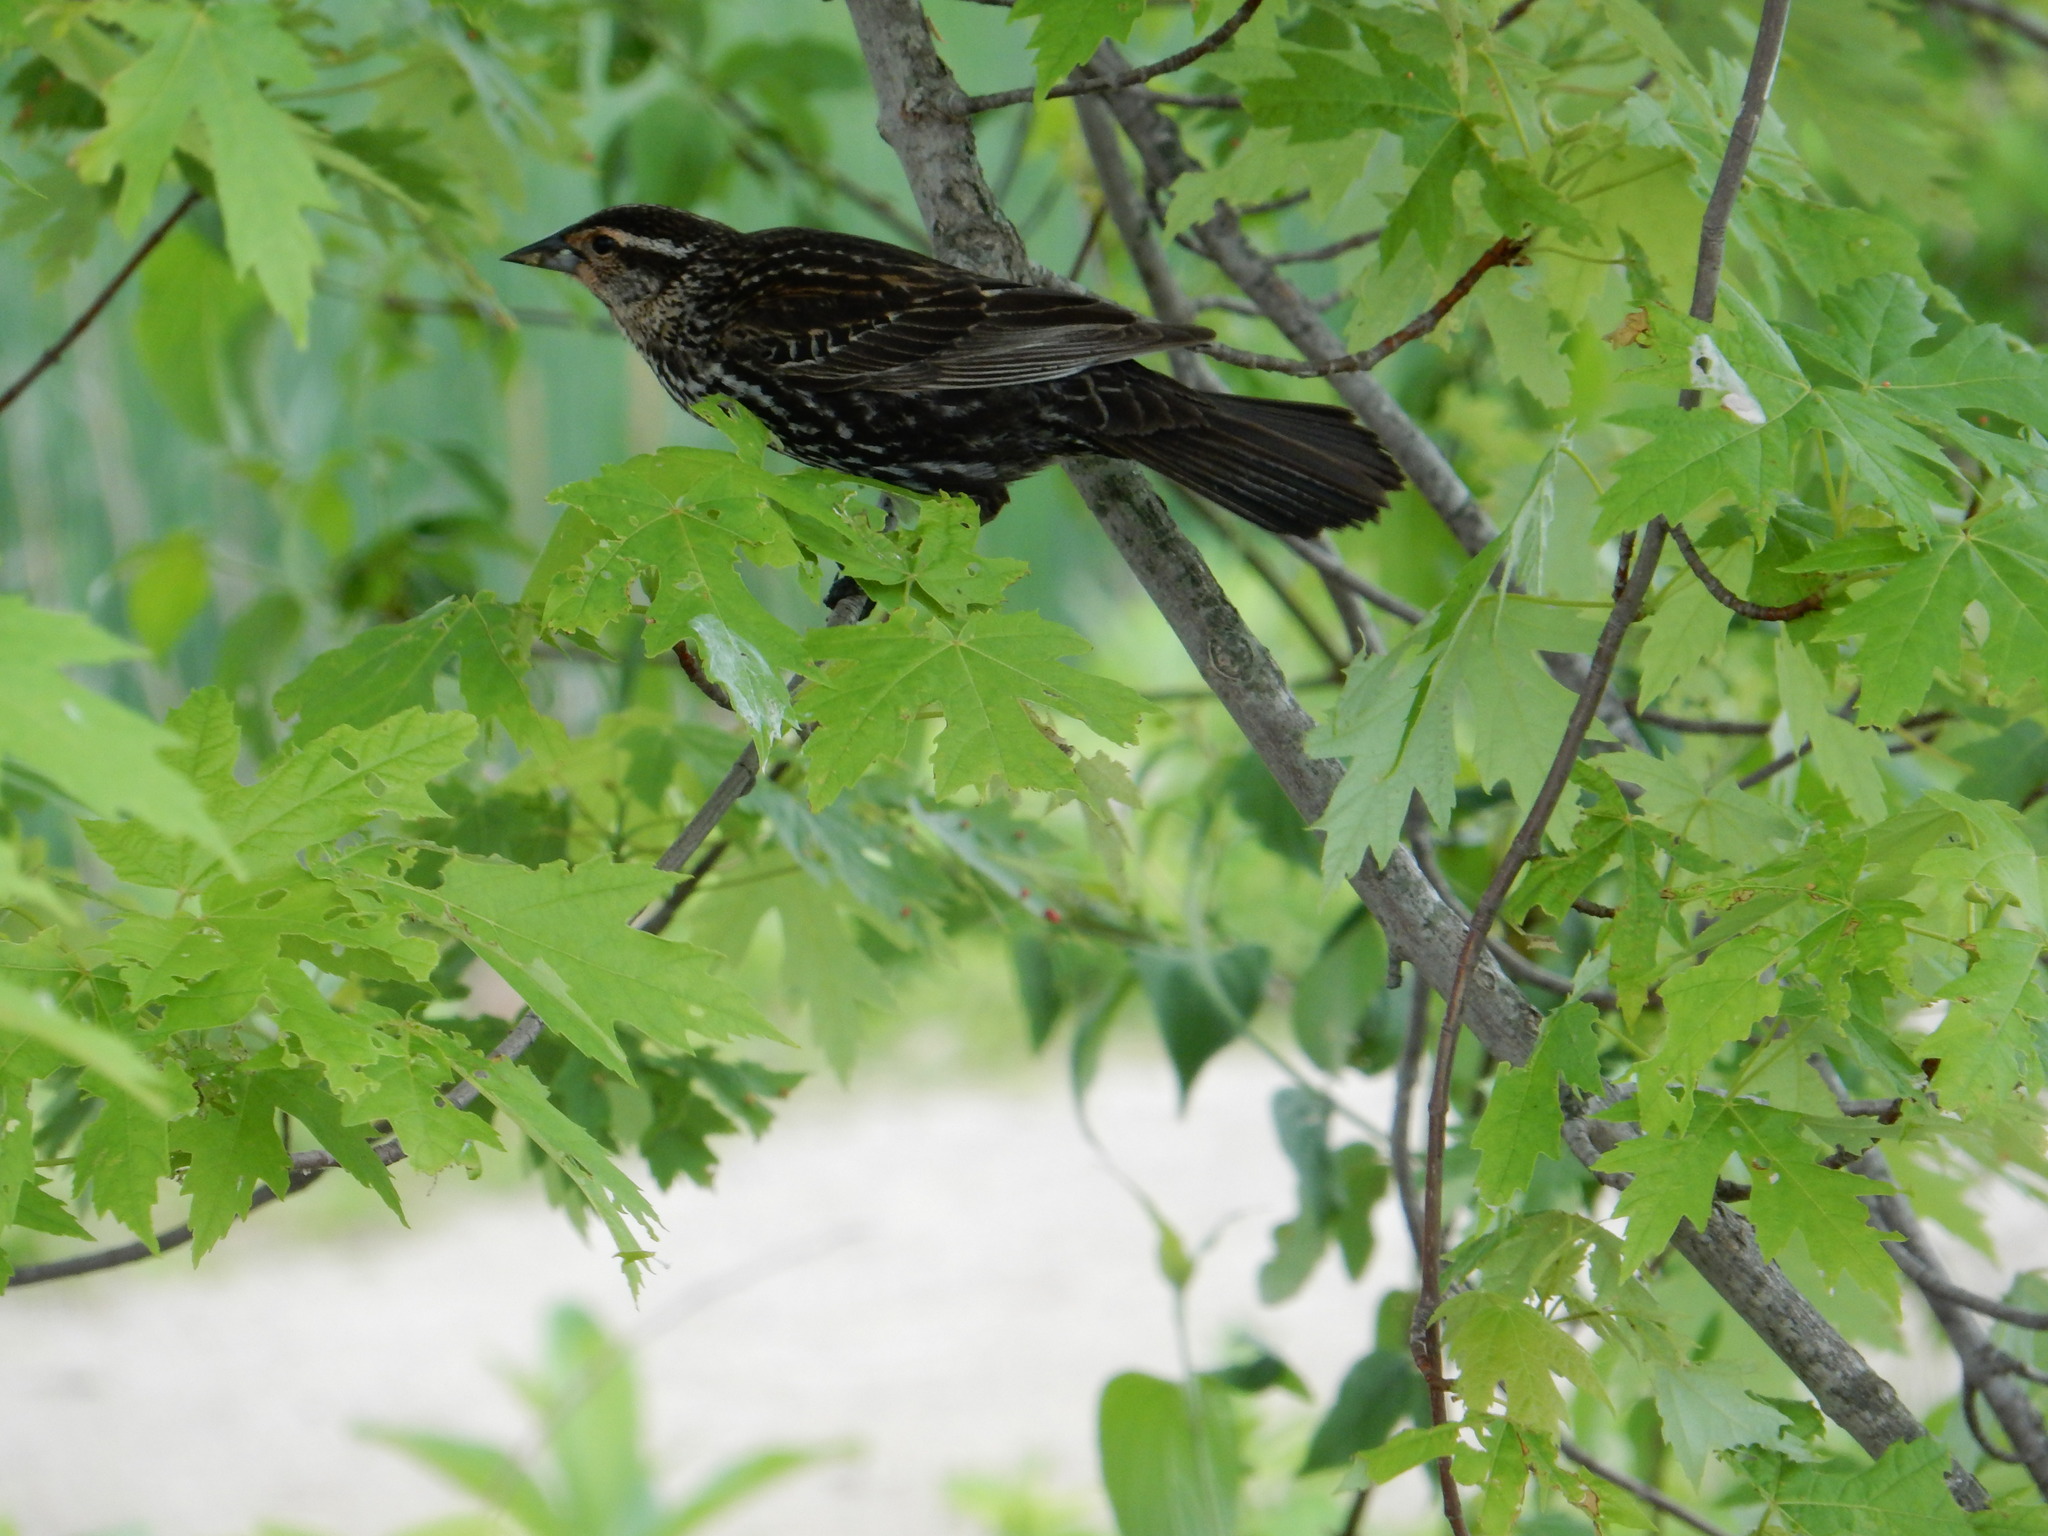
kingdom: Animalia
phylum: Chordata
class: Aves
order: Passeriformes
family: Icteridae
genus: Agelaius
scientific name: Agelaius phoeniceus
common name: Red-winged blackbird
